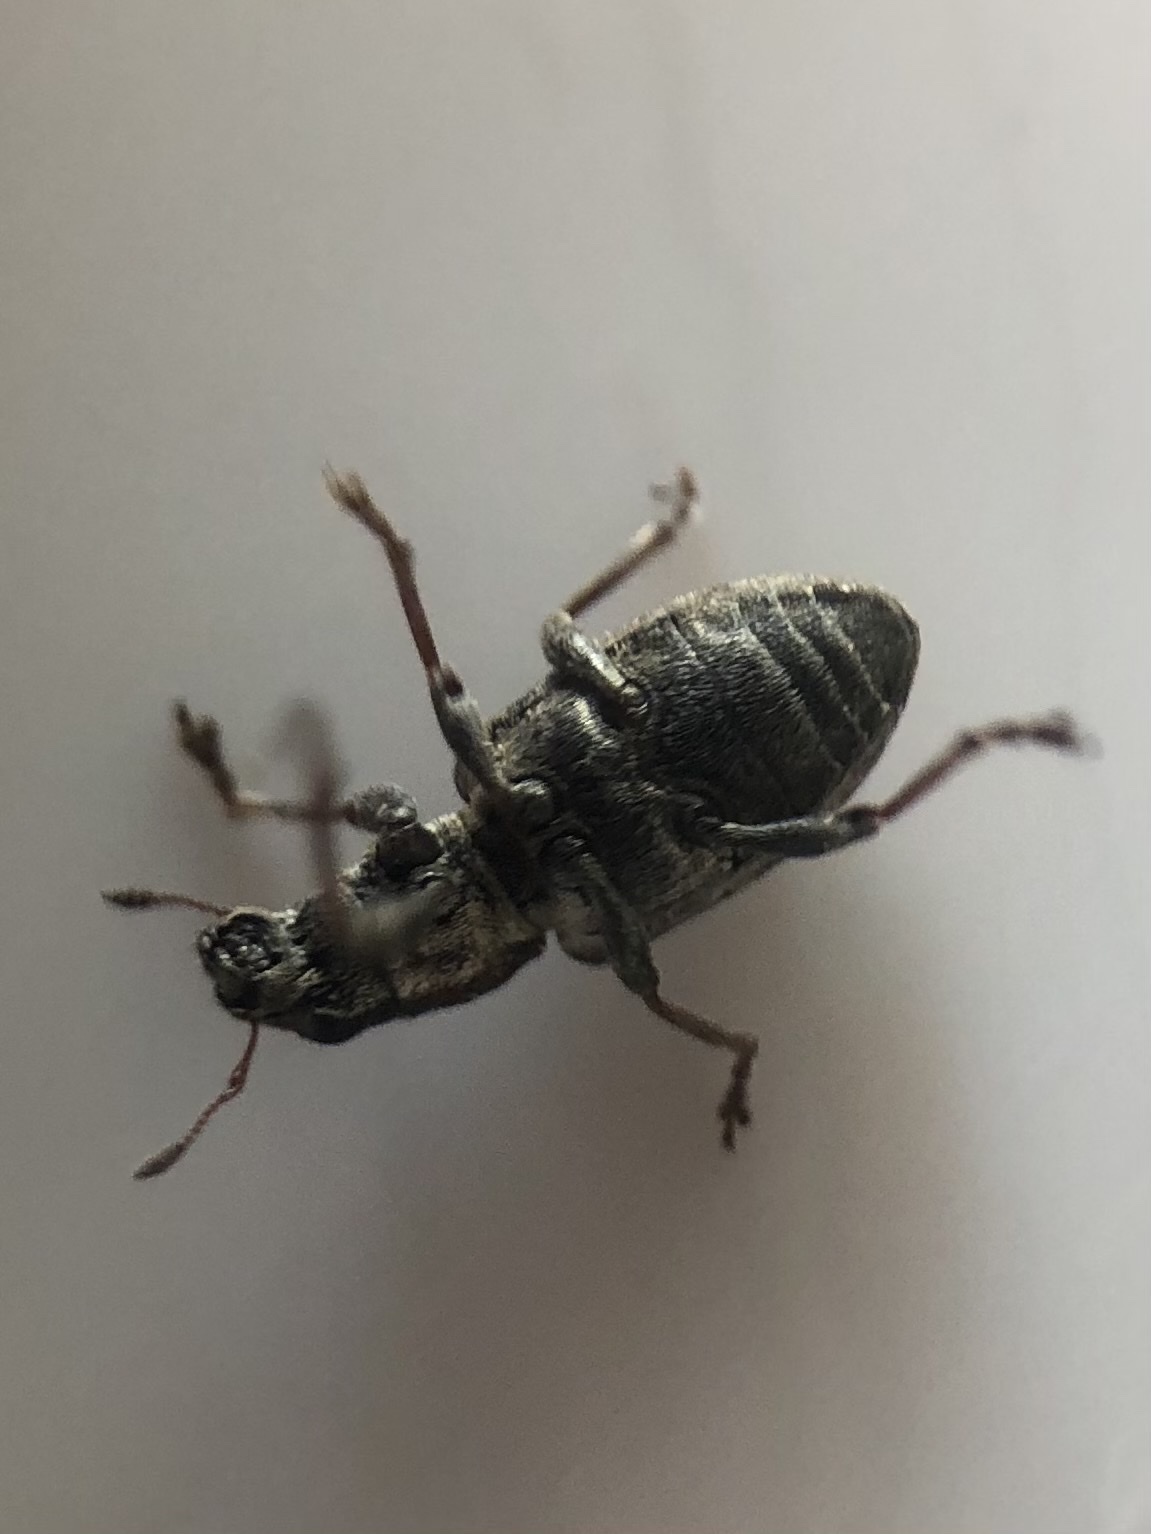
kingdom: Animalia
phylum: Arthropoda
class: Insecta
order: Coleoptera
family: Curculionidae
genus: Sitona
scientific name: Sitona obsoletus
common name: Weevil
